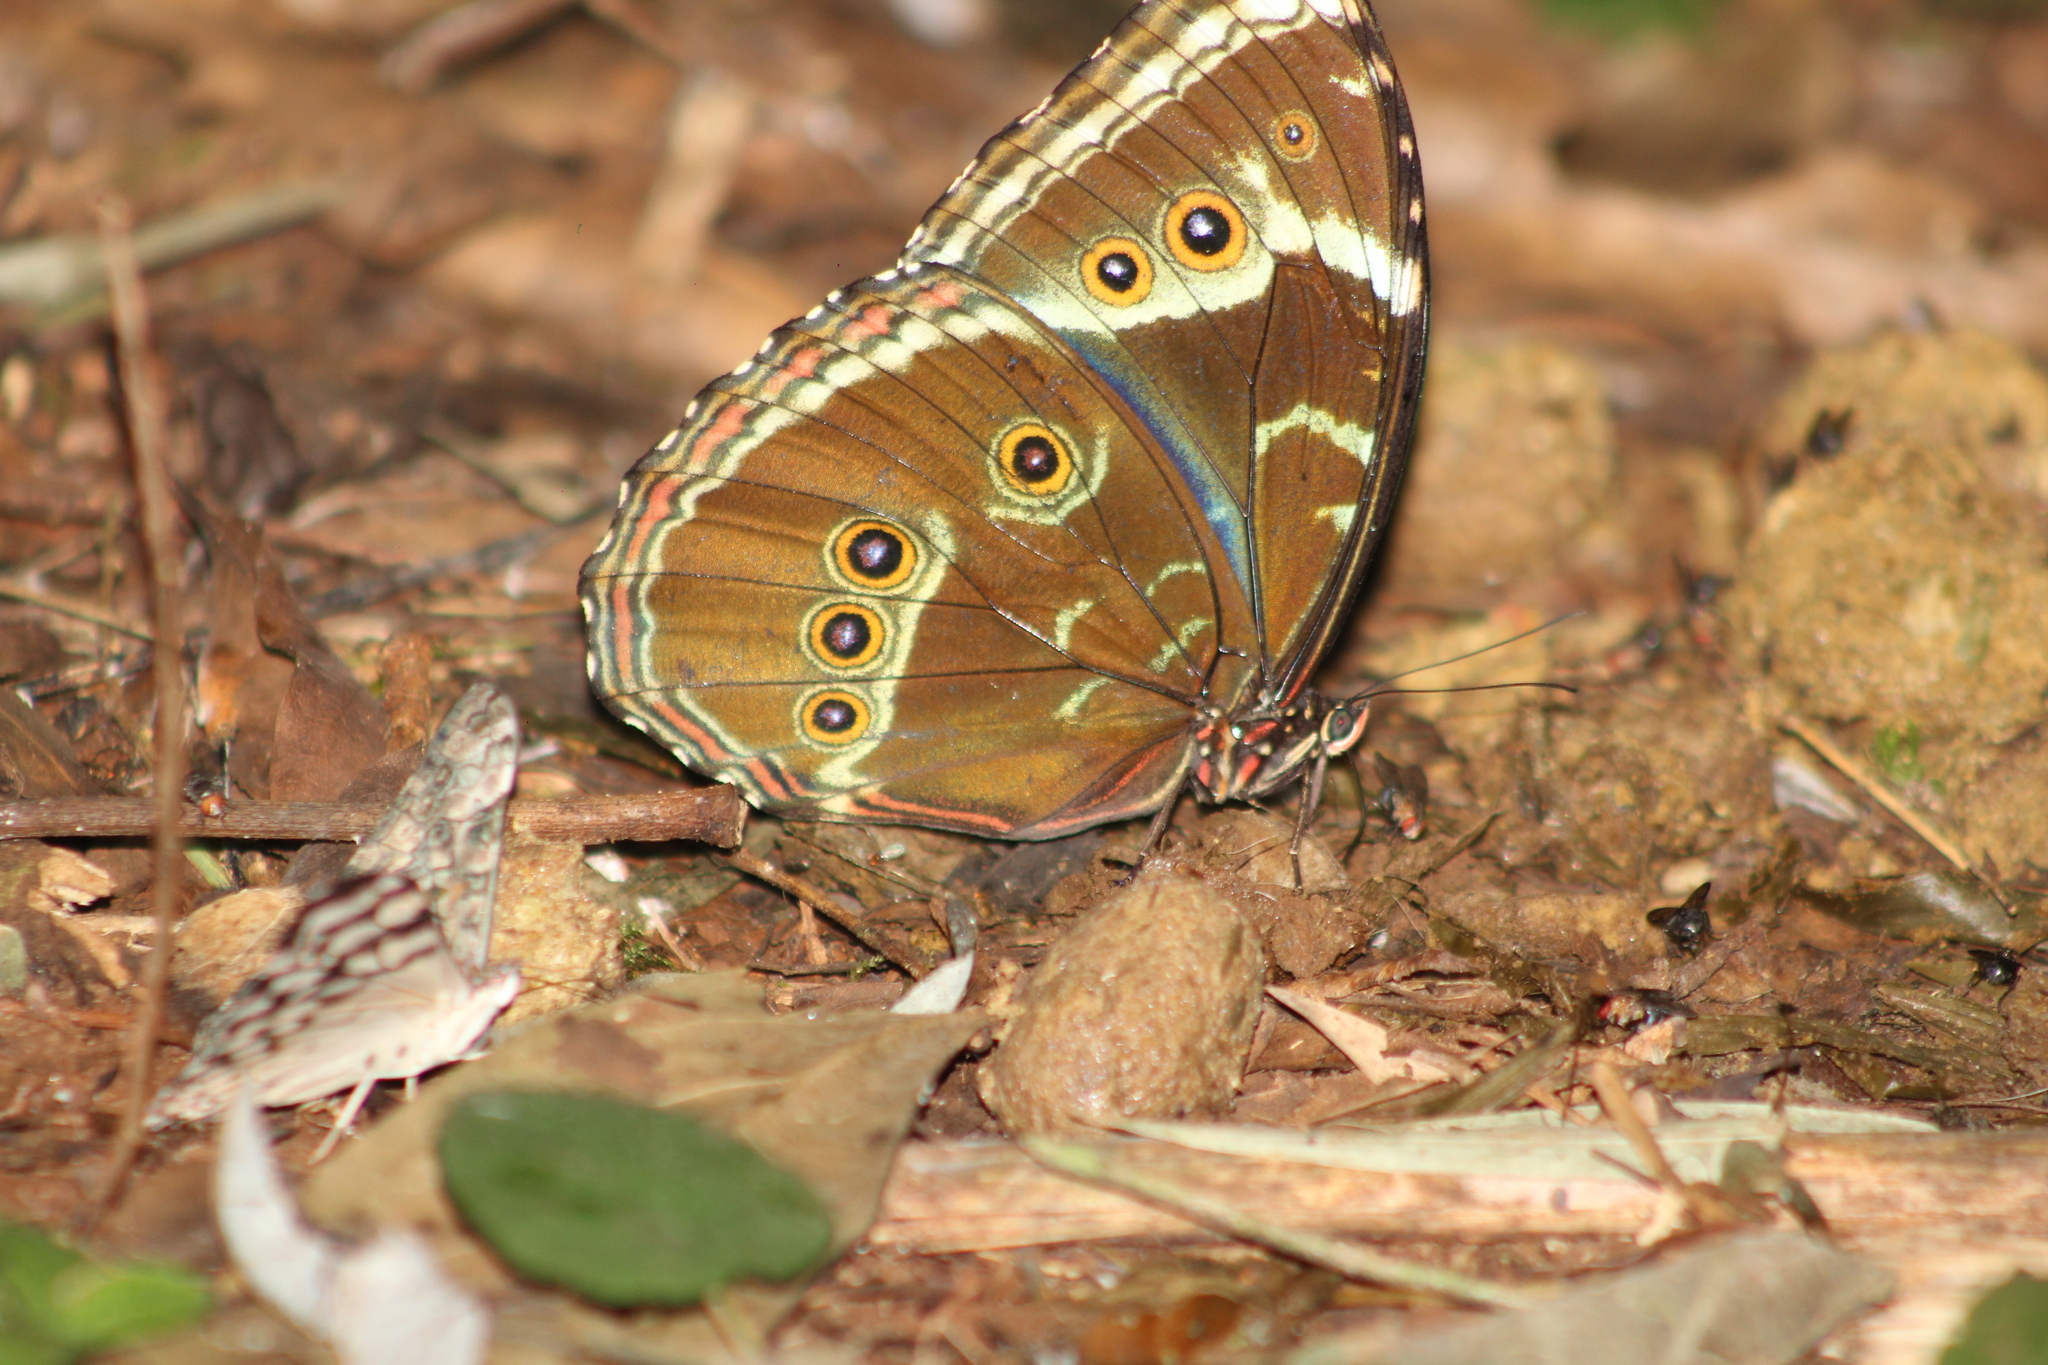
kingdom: Animalia
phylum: Arthropoda
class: Insecta
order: Lepidoptera
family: Nymphalidae
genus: Morpho
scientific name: Morpho helenor
